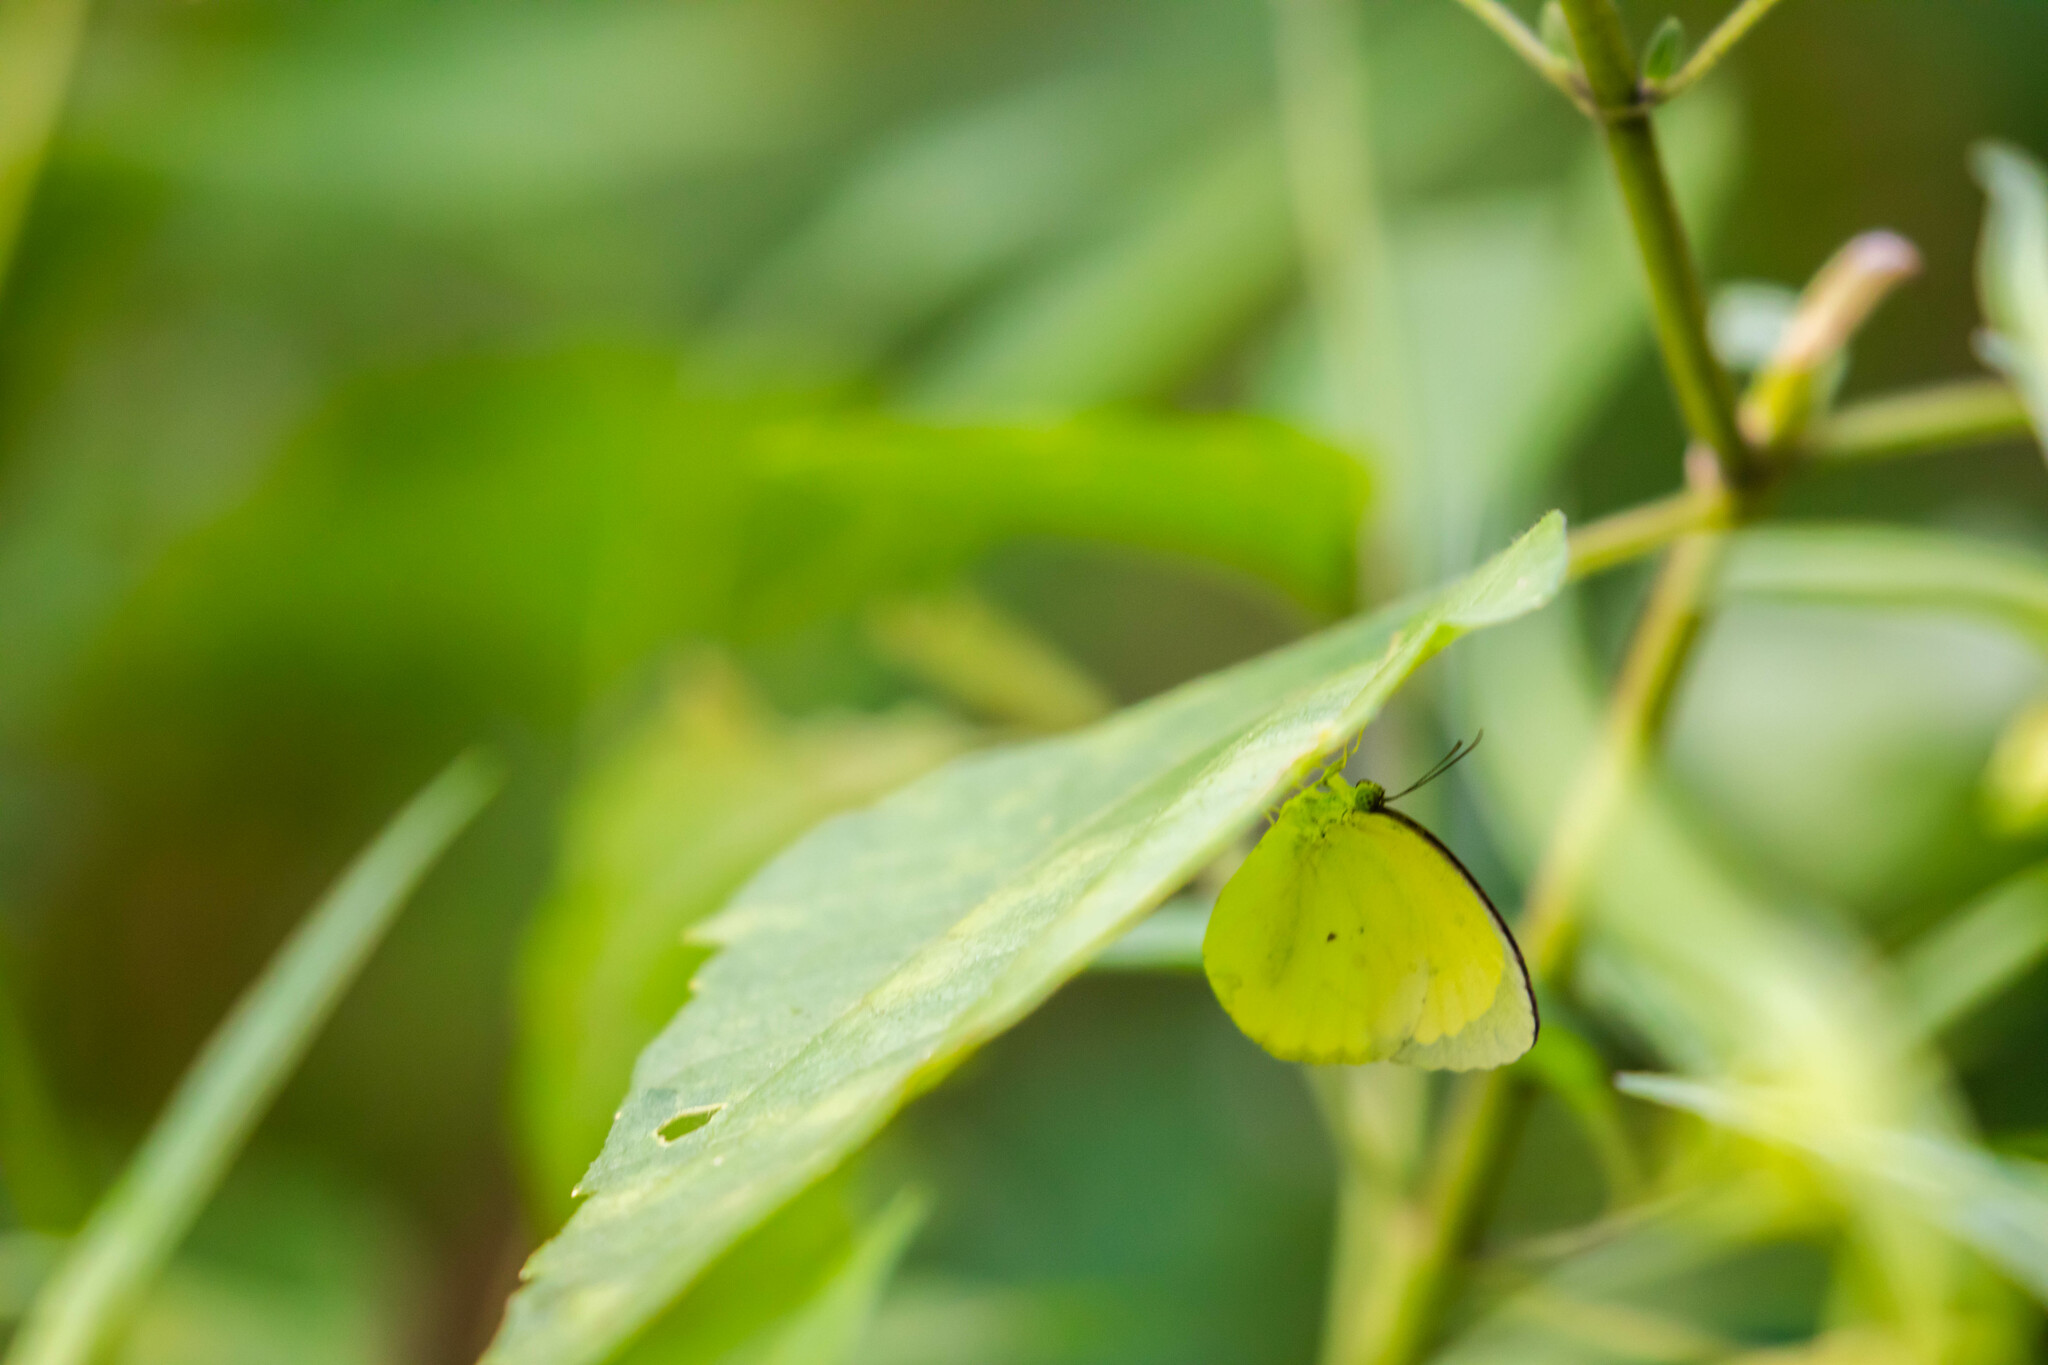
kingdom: Animalia
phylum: Arthropoda
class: Insecta
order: Lepidoptera
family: Pieridae
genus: Pyrisitia
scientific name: Pyrisitia venusta
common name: Pale yellow
